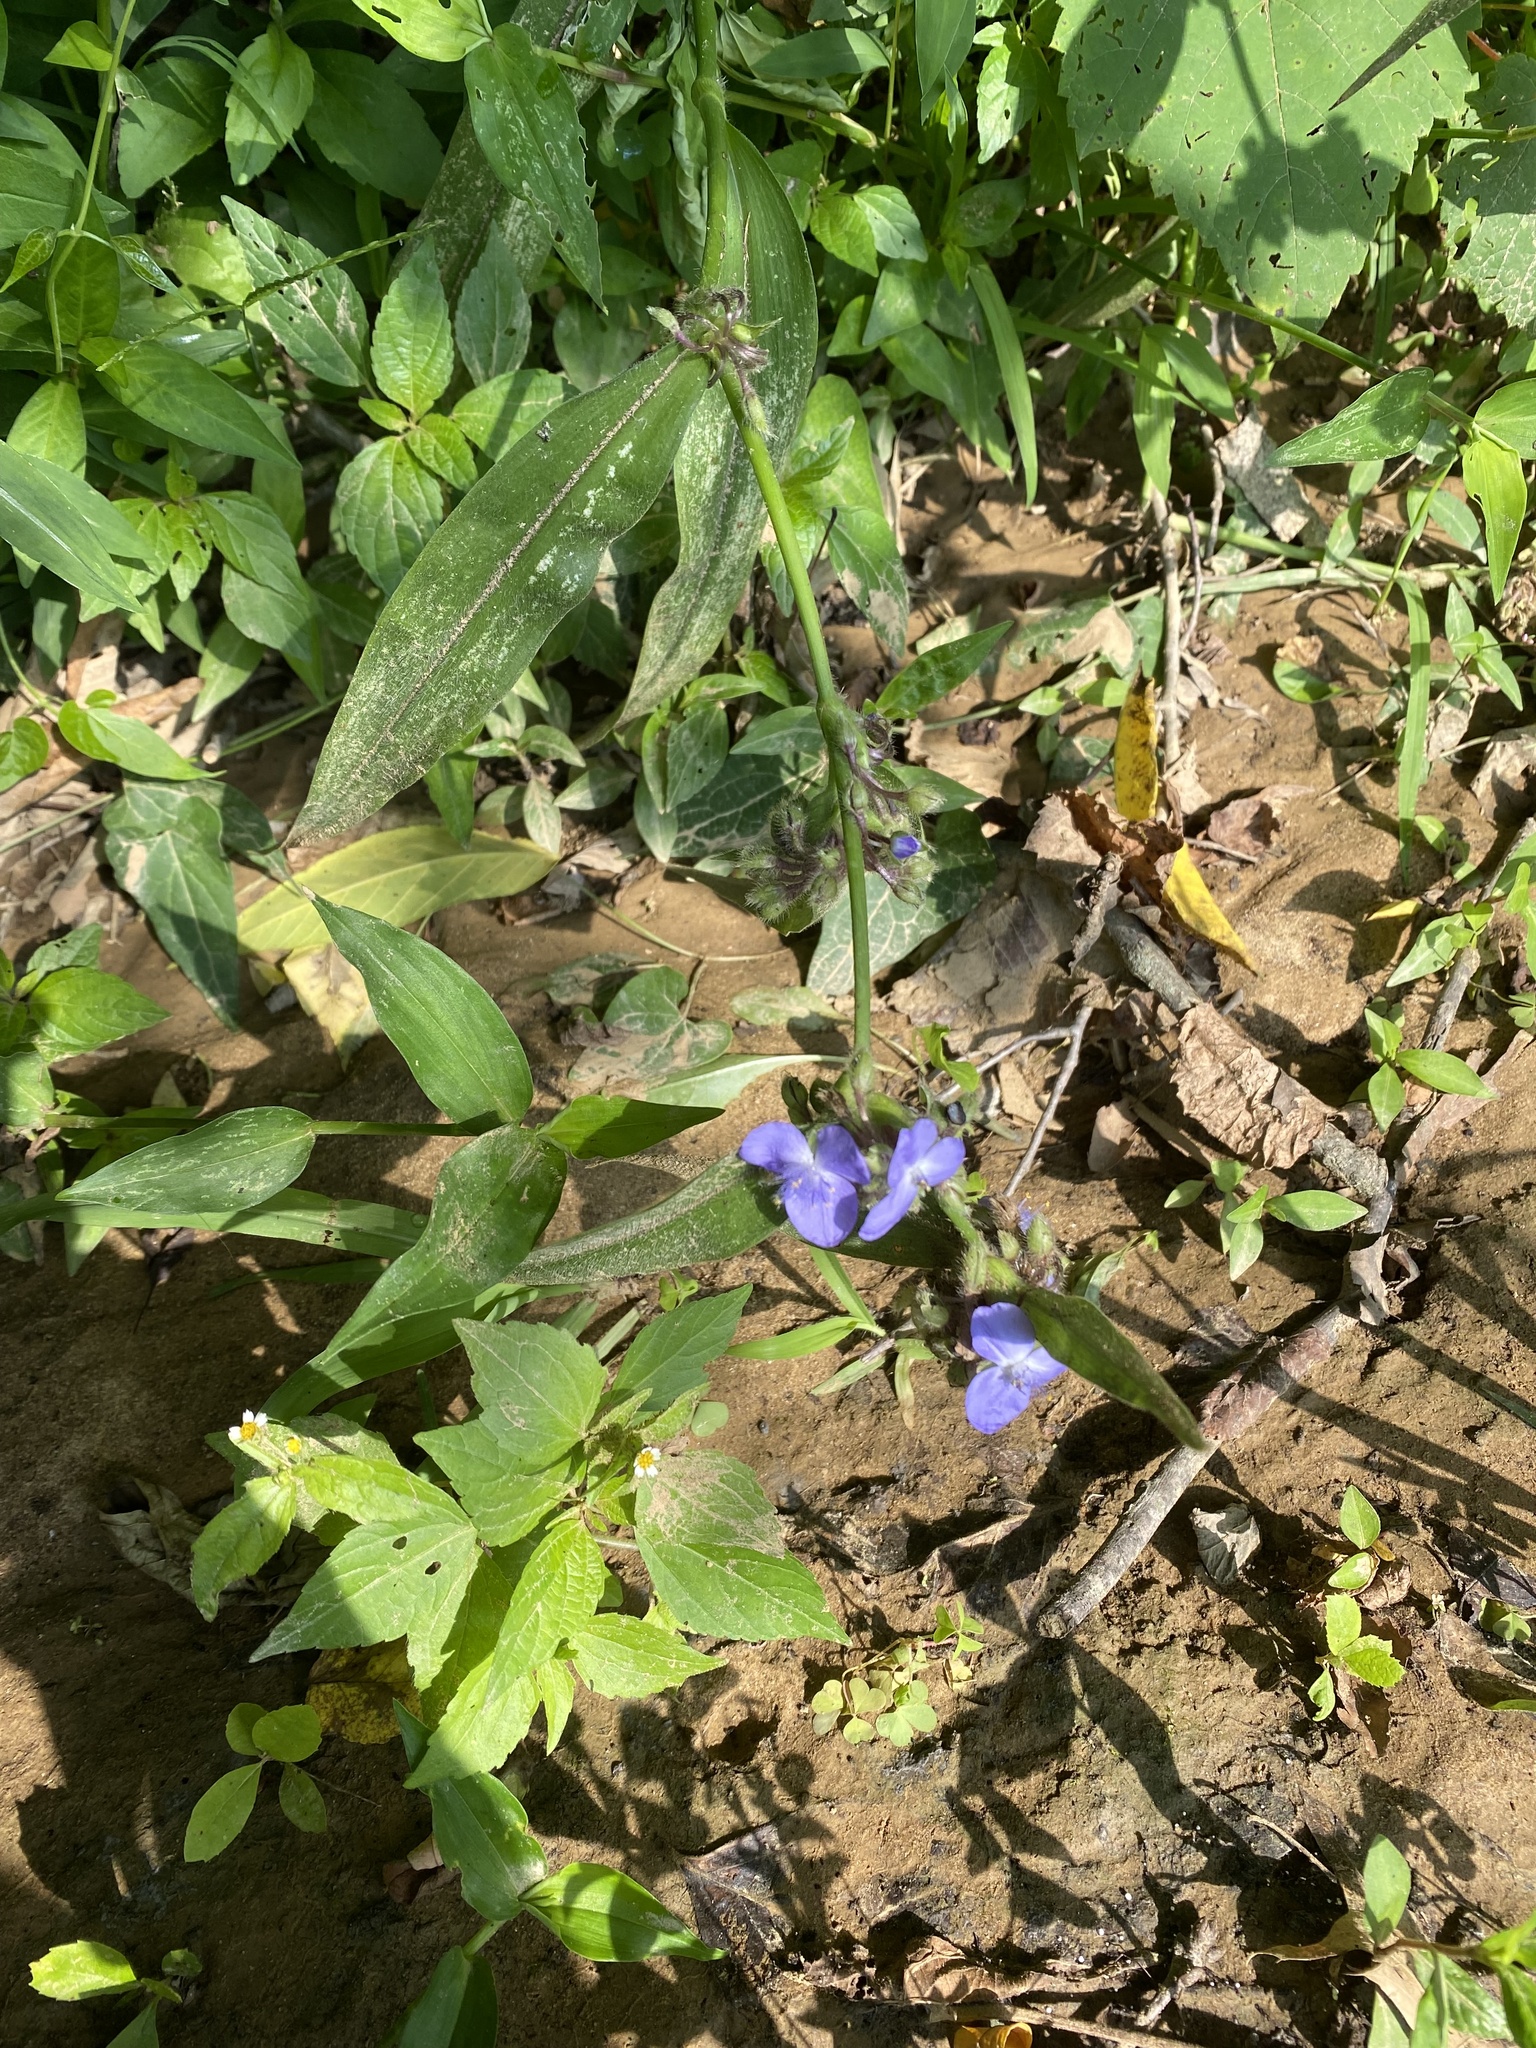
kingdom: Plantae
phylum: Tracheophyta
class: Liliopsida
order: Commelinales
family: Commelinaceae
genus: Tradescantia
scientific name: Tradescantia subaspera
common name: Wide-leaf spiderwort
